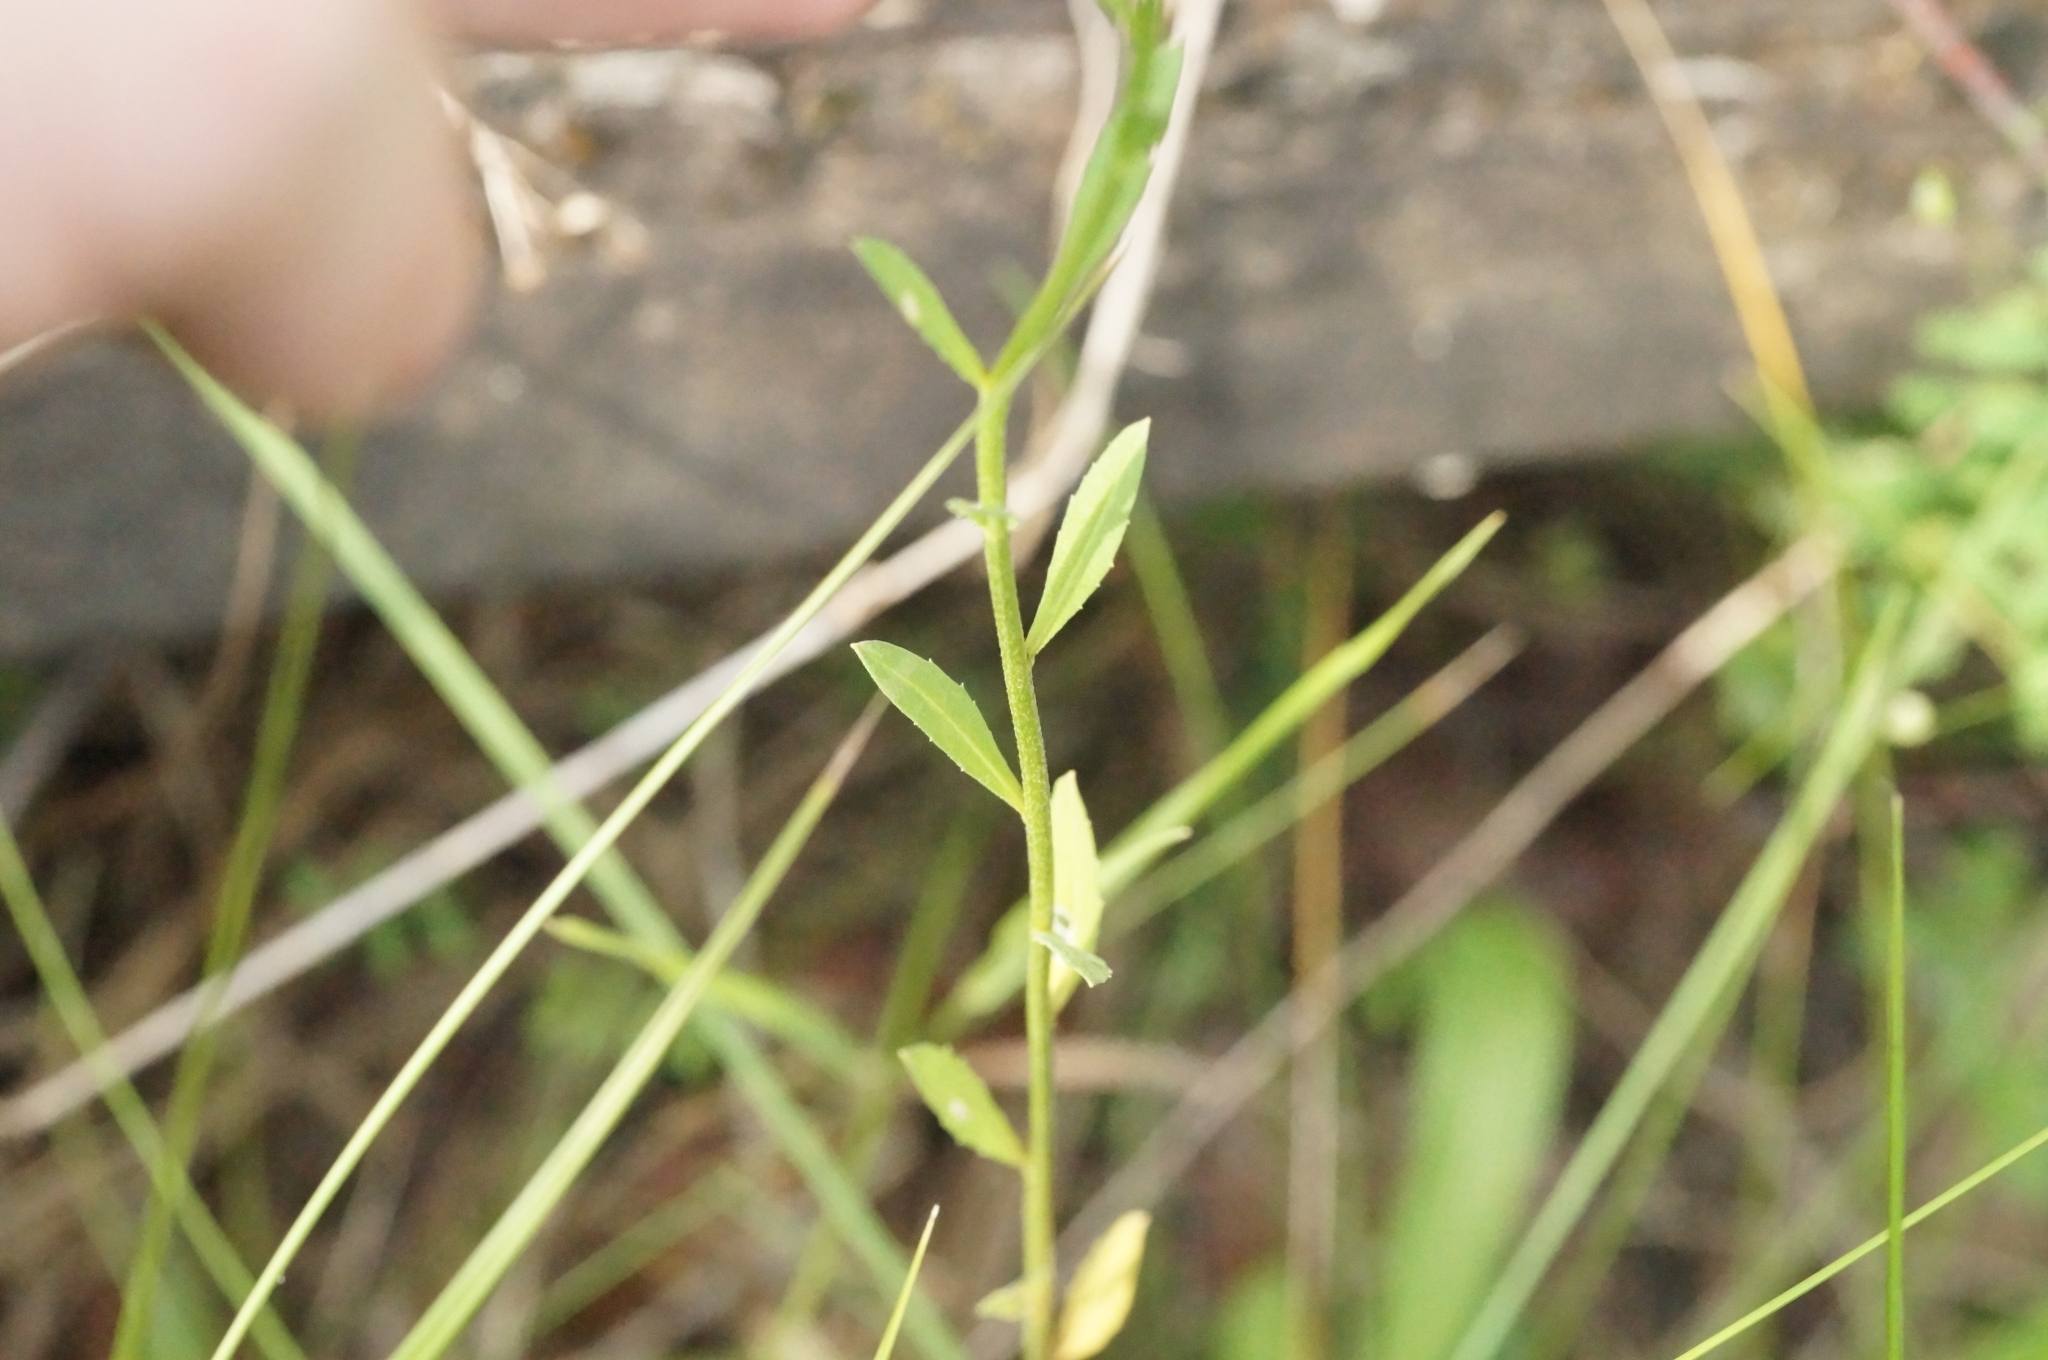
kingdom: Plantae
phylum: Tracheophyta
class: Magnoliopsida
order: Brassicales
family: Brassicaceae
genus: Erysimum
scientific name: Erysimum hieraciifolium
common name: European wallflower
